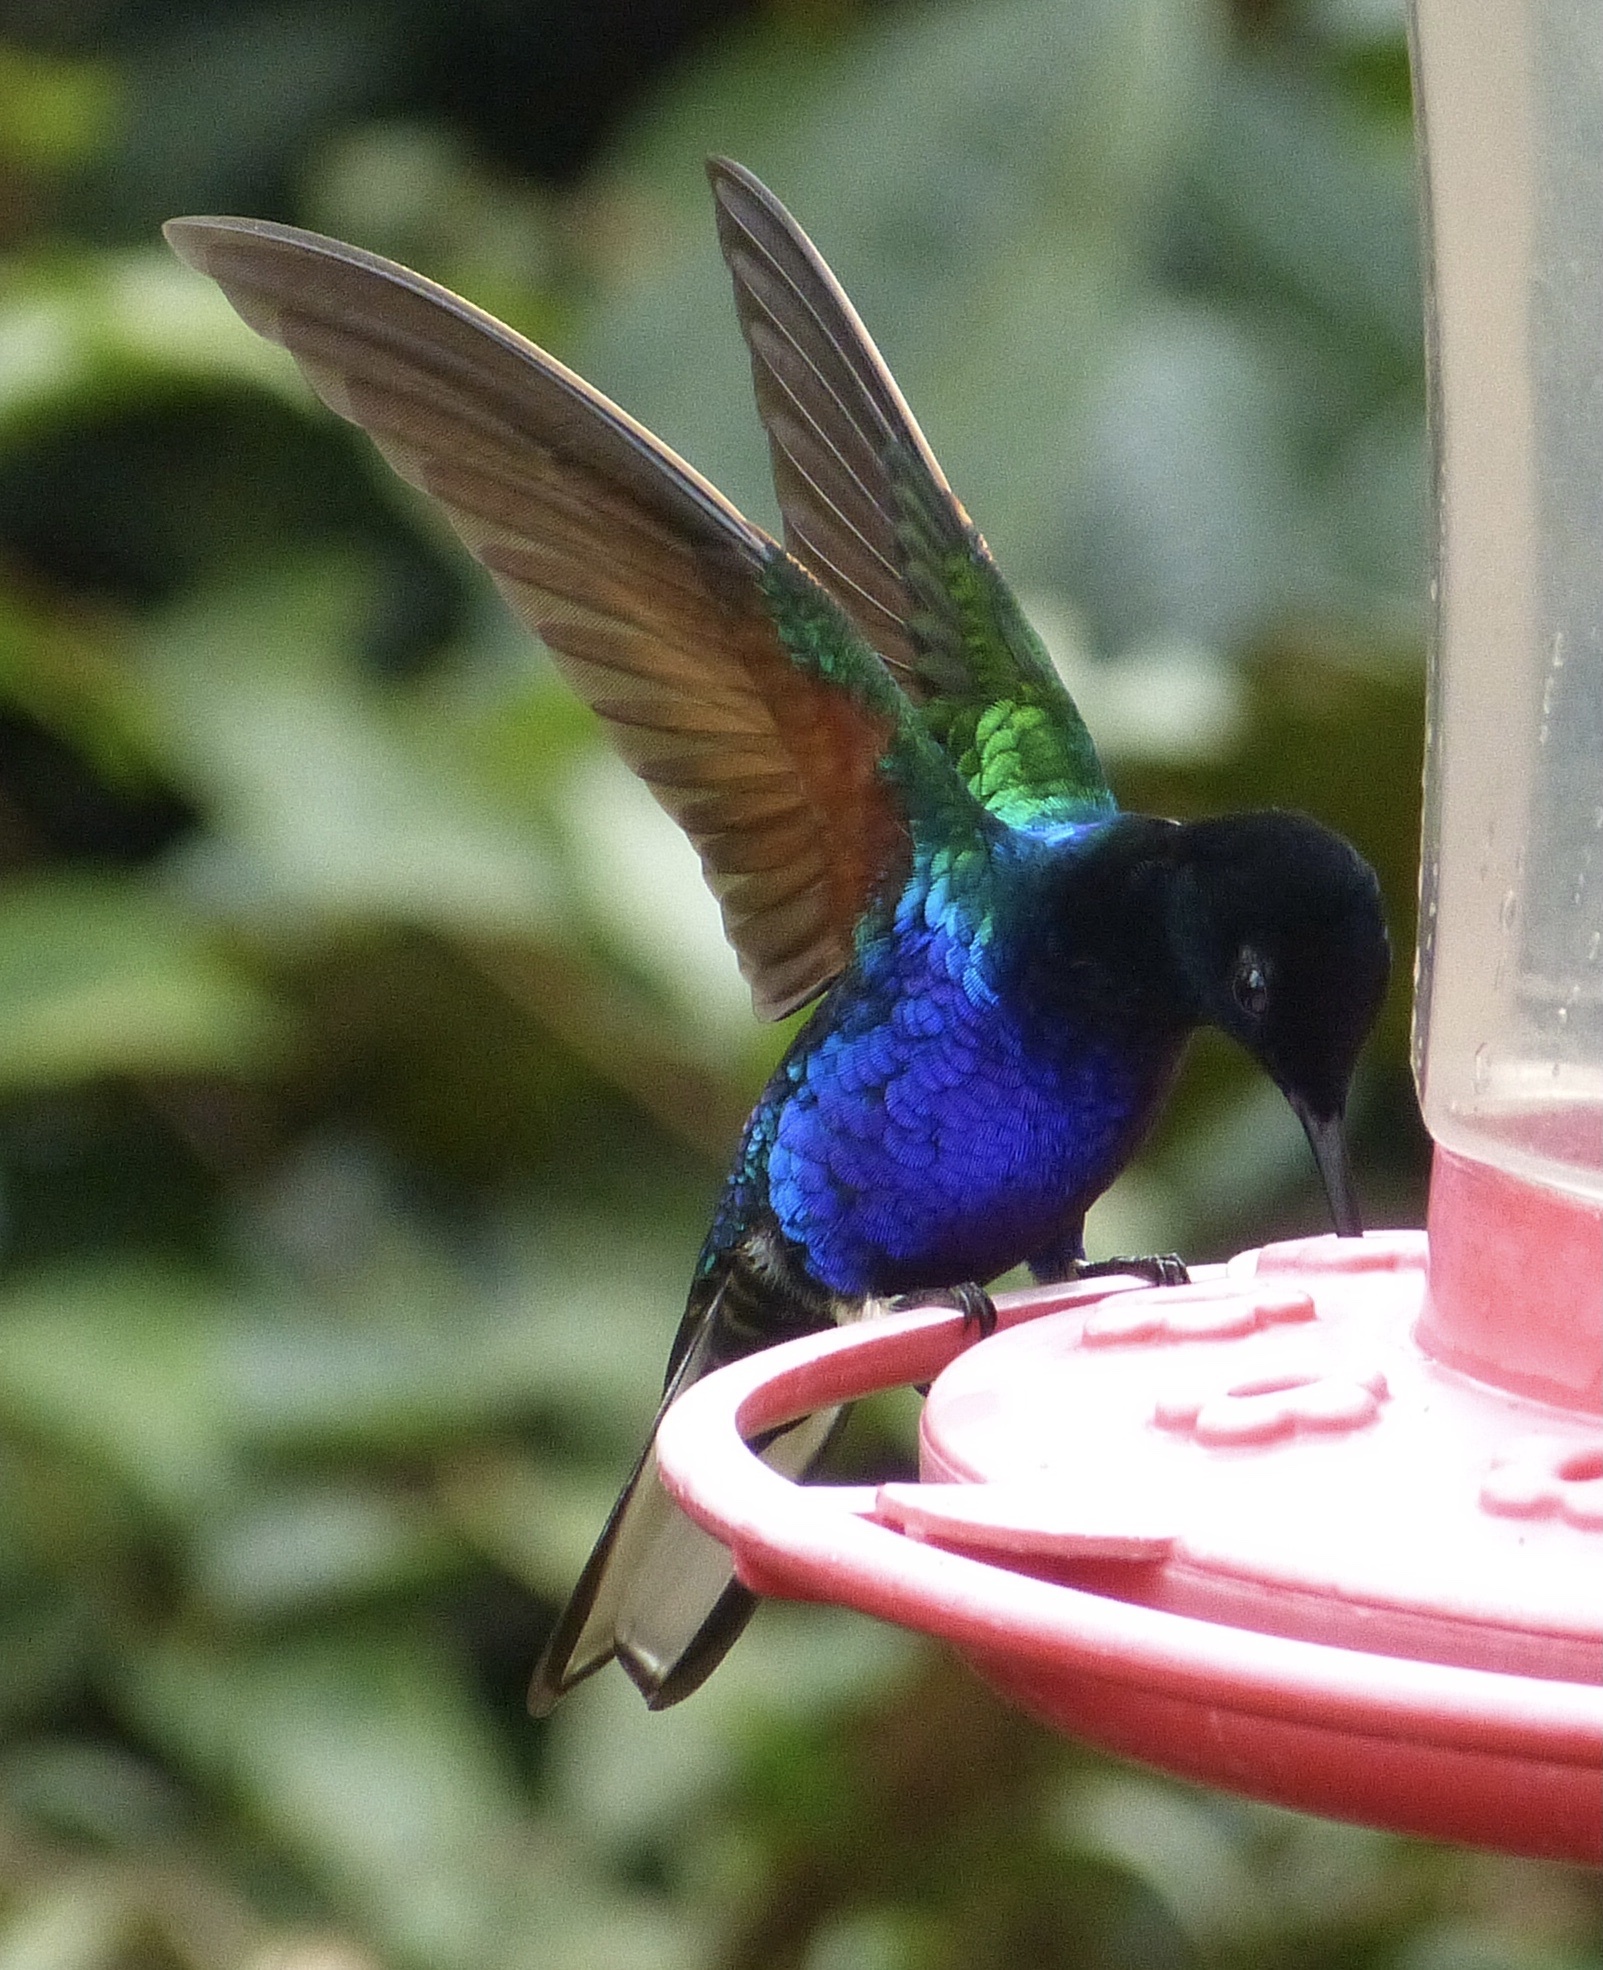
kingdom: Animalia
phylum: Chordata
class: Aves
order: Apodiformes
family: Trochilidae
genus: Boissonneaua
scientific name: Boissonneaua jardini
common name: Velvet-purple coronet
